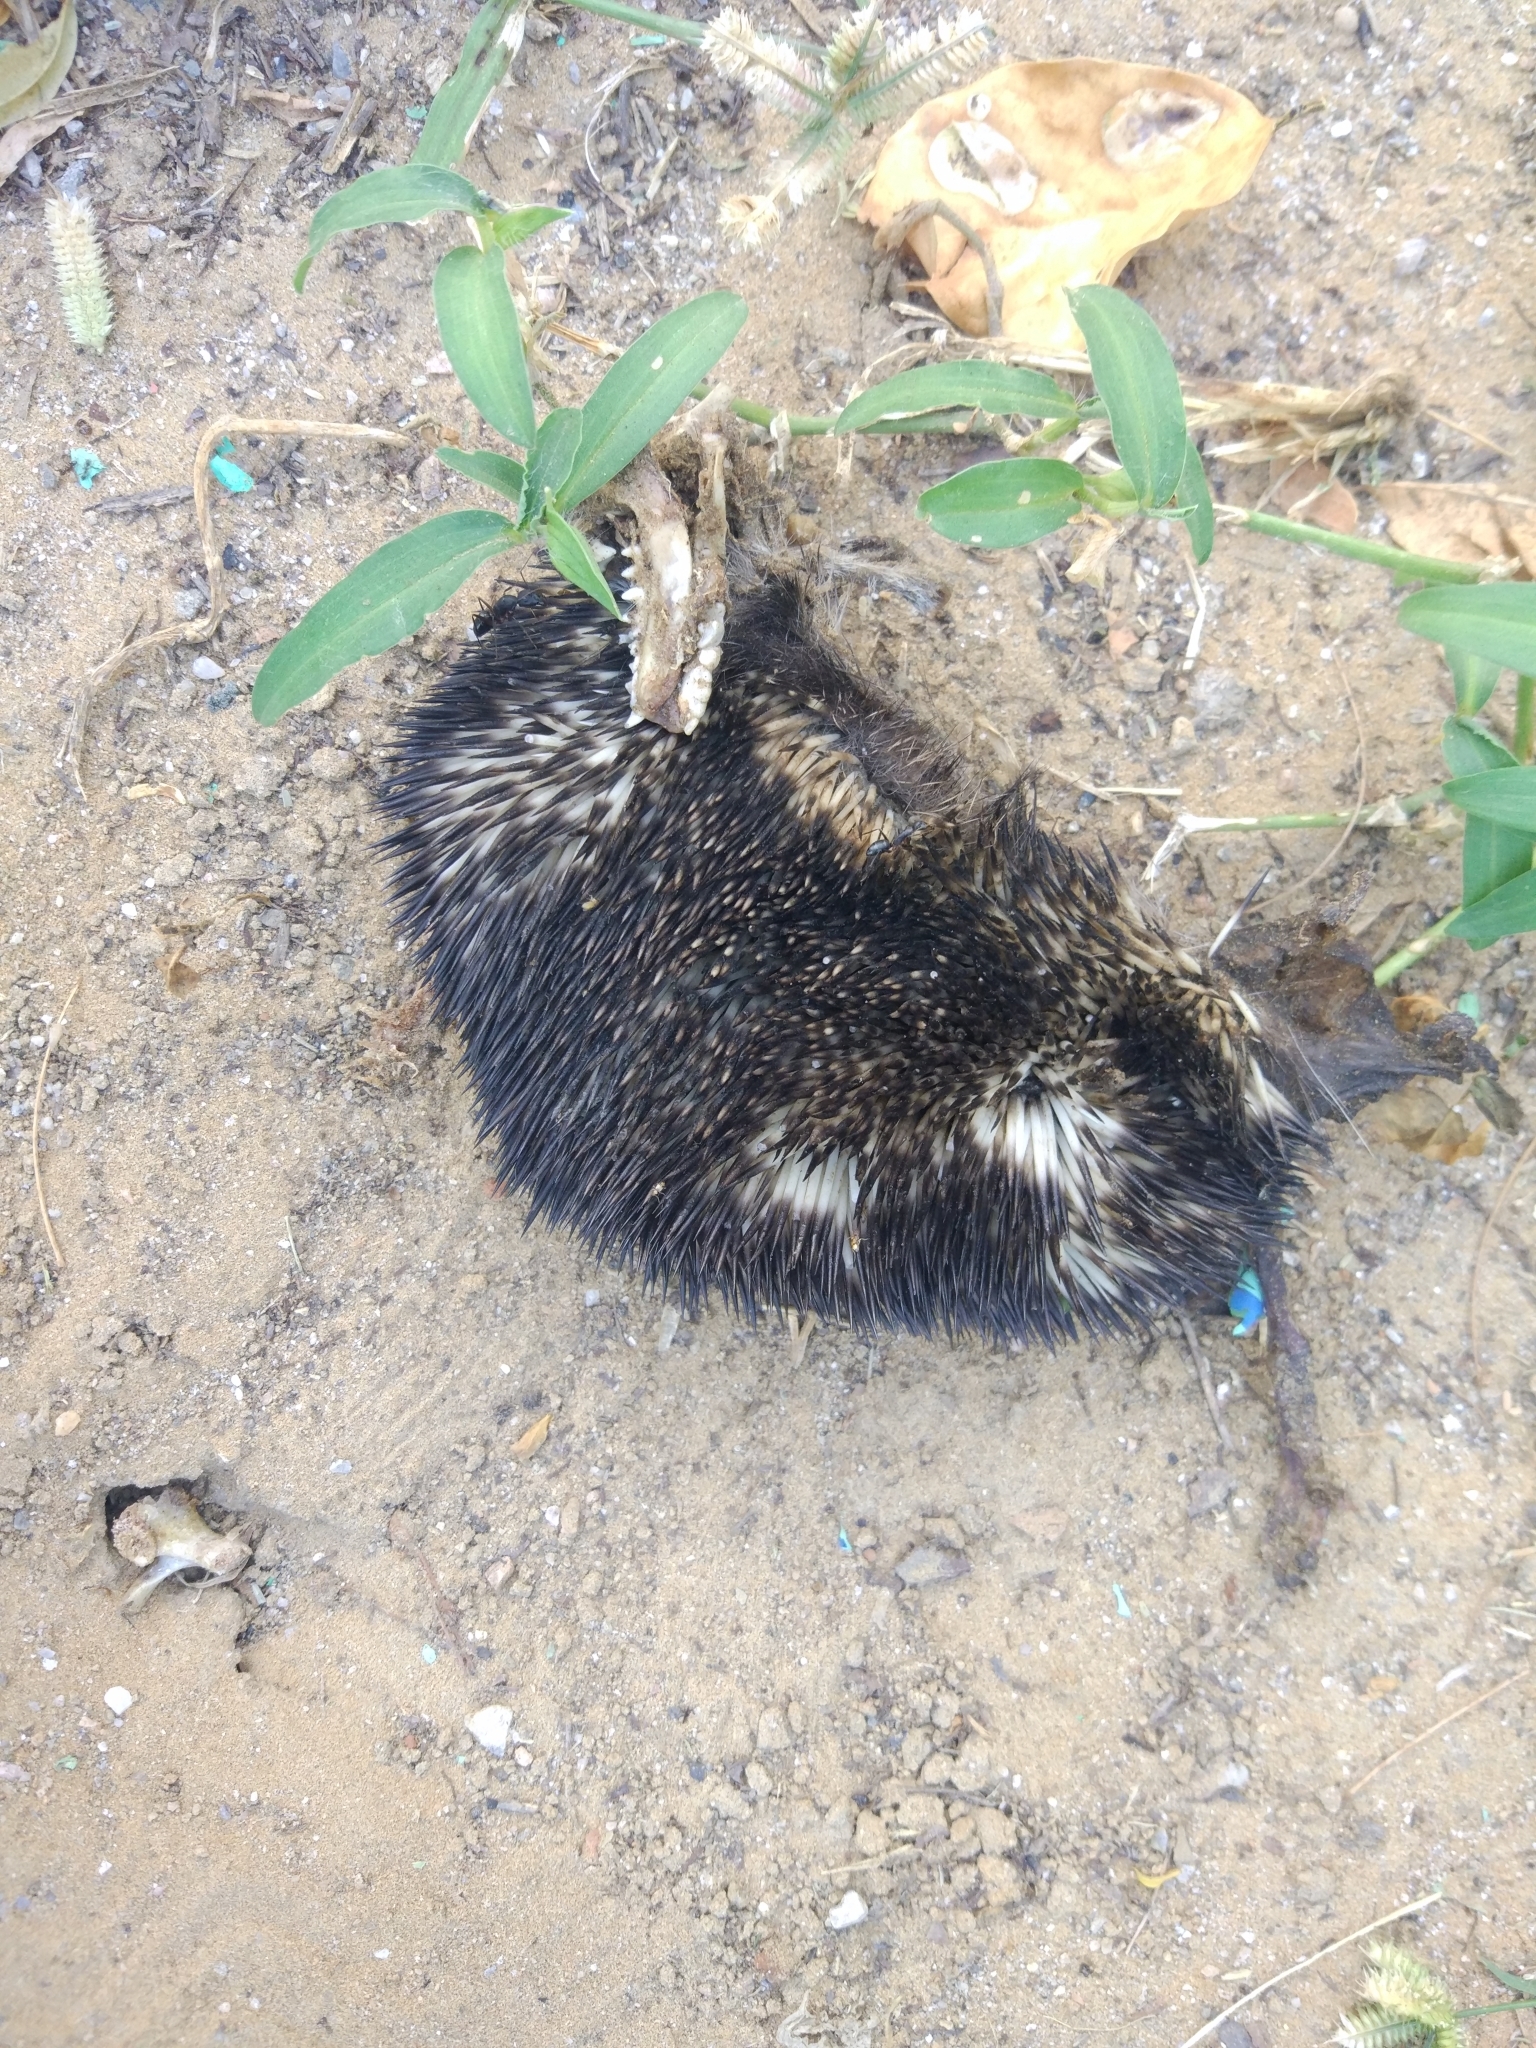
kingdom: Animalia
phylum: Chordata
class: Mammalia
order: Erinaceomorpha
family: Erinaceidae
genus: Paraechinus
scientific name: Paraechinus micropus
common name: Indian hedgehog
